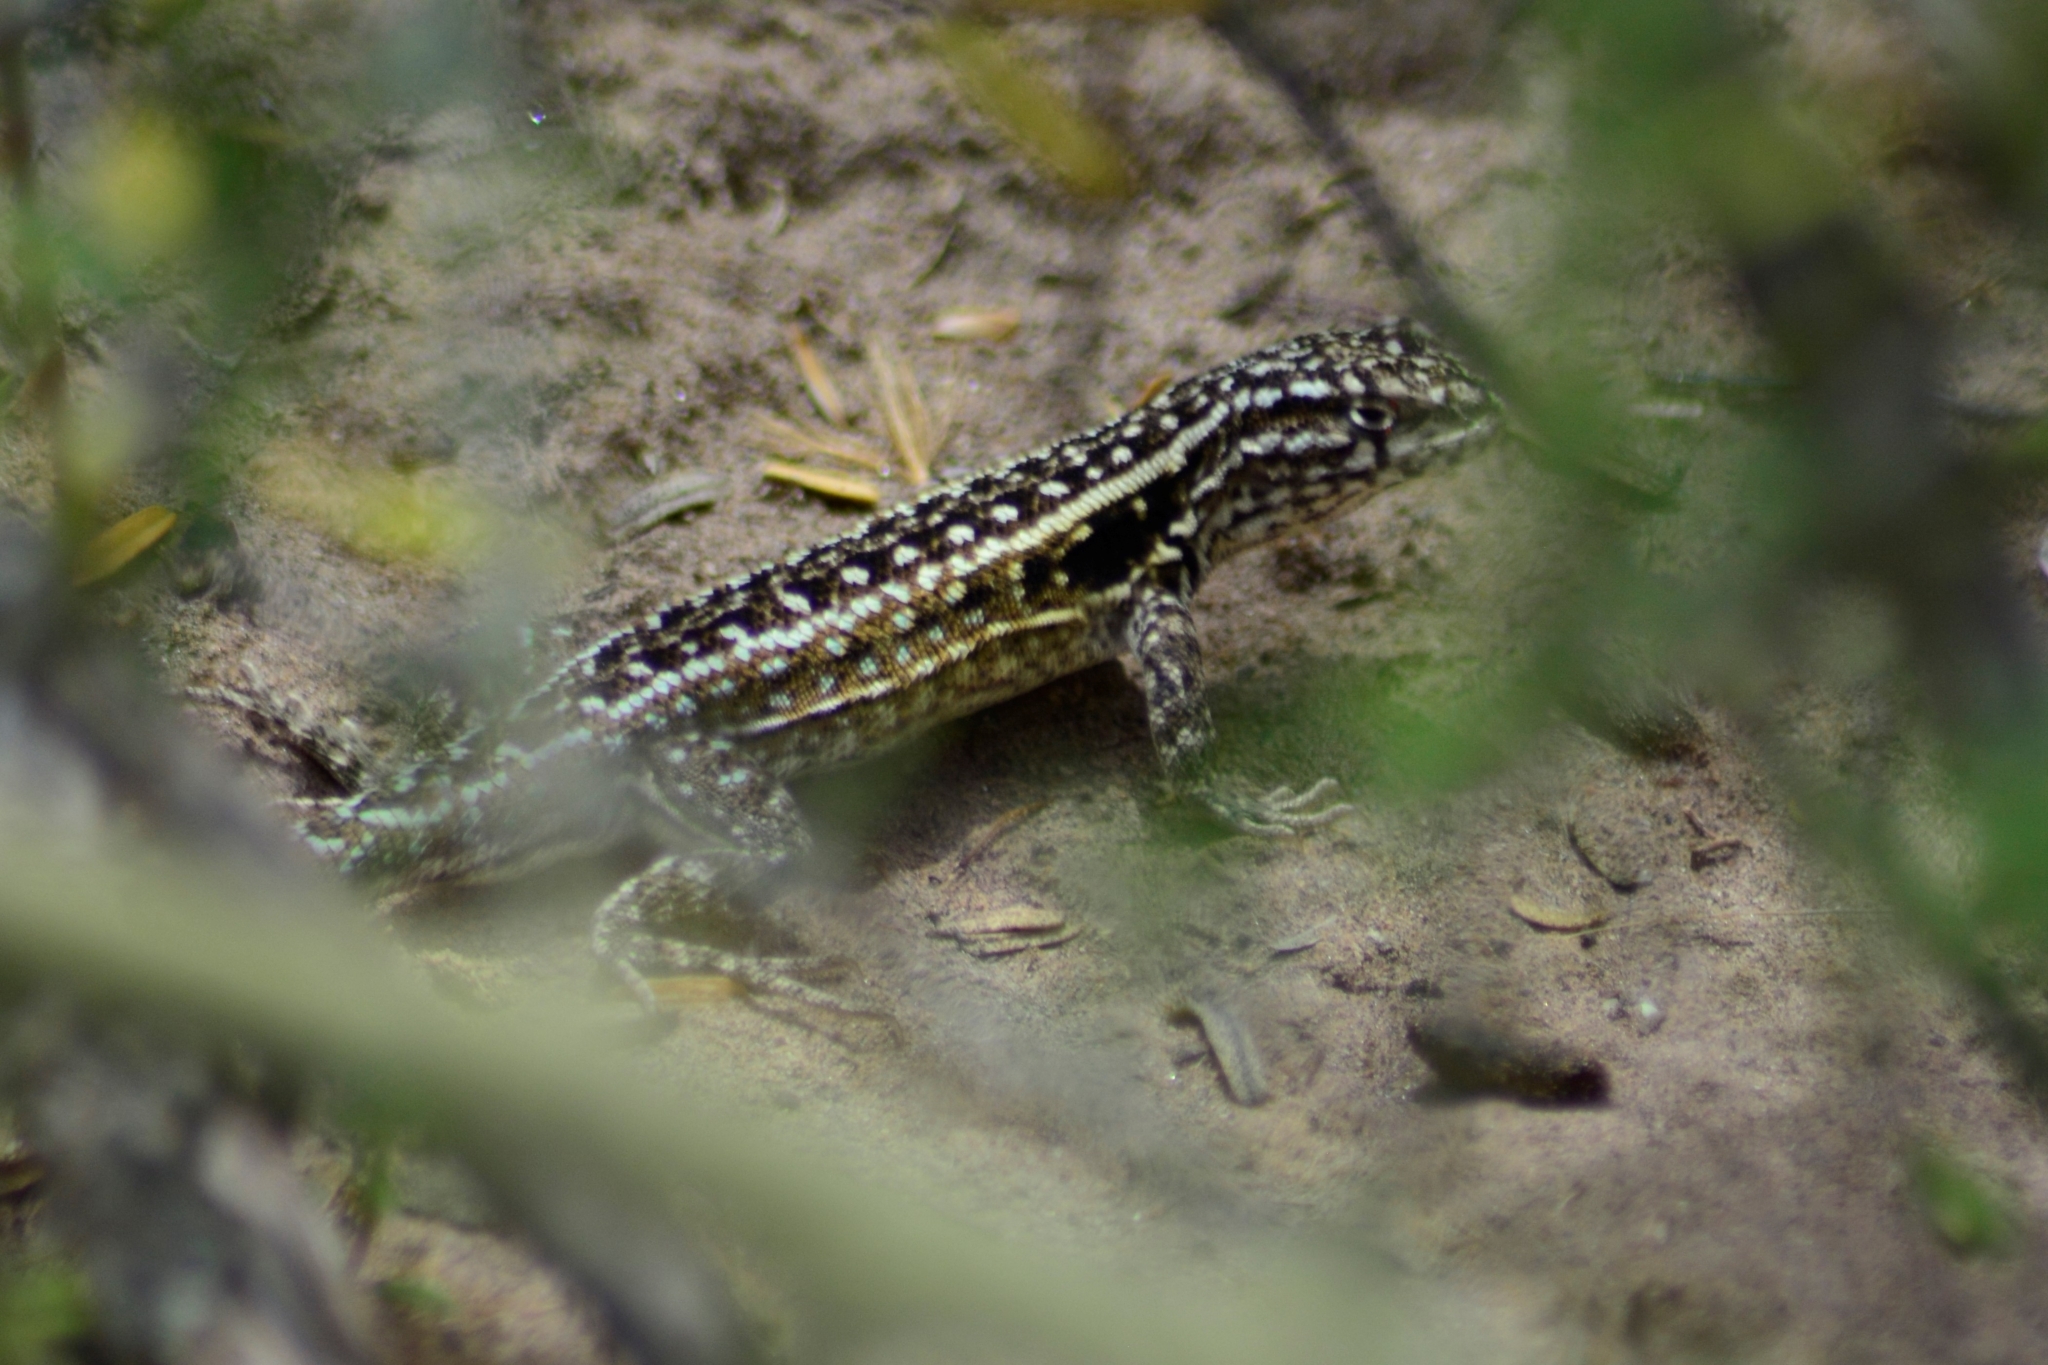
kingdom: Animalia
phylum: Chordata
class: Squamata
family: Liolaemidae
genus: Liolaemus
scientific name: Liolaemus darwinii
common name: Darwin's tree iguana
